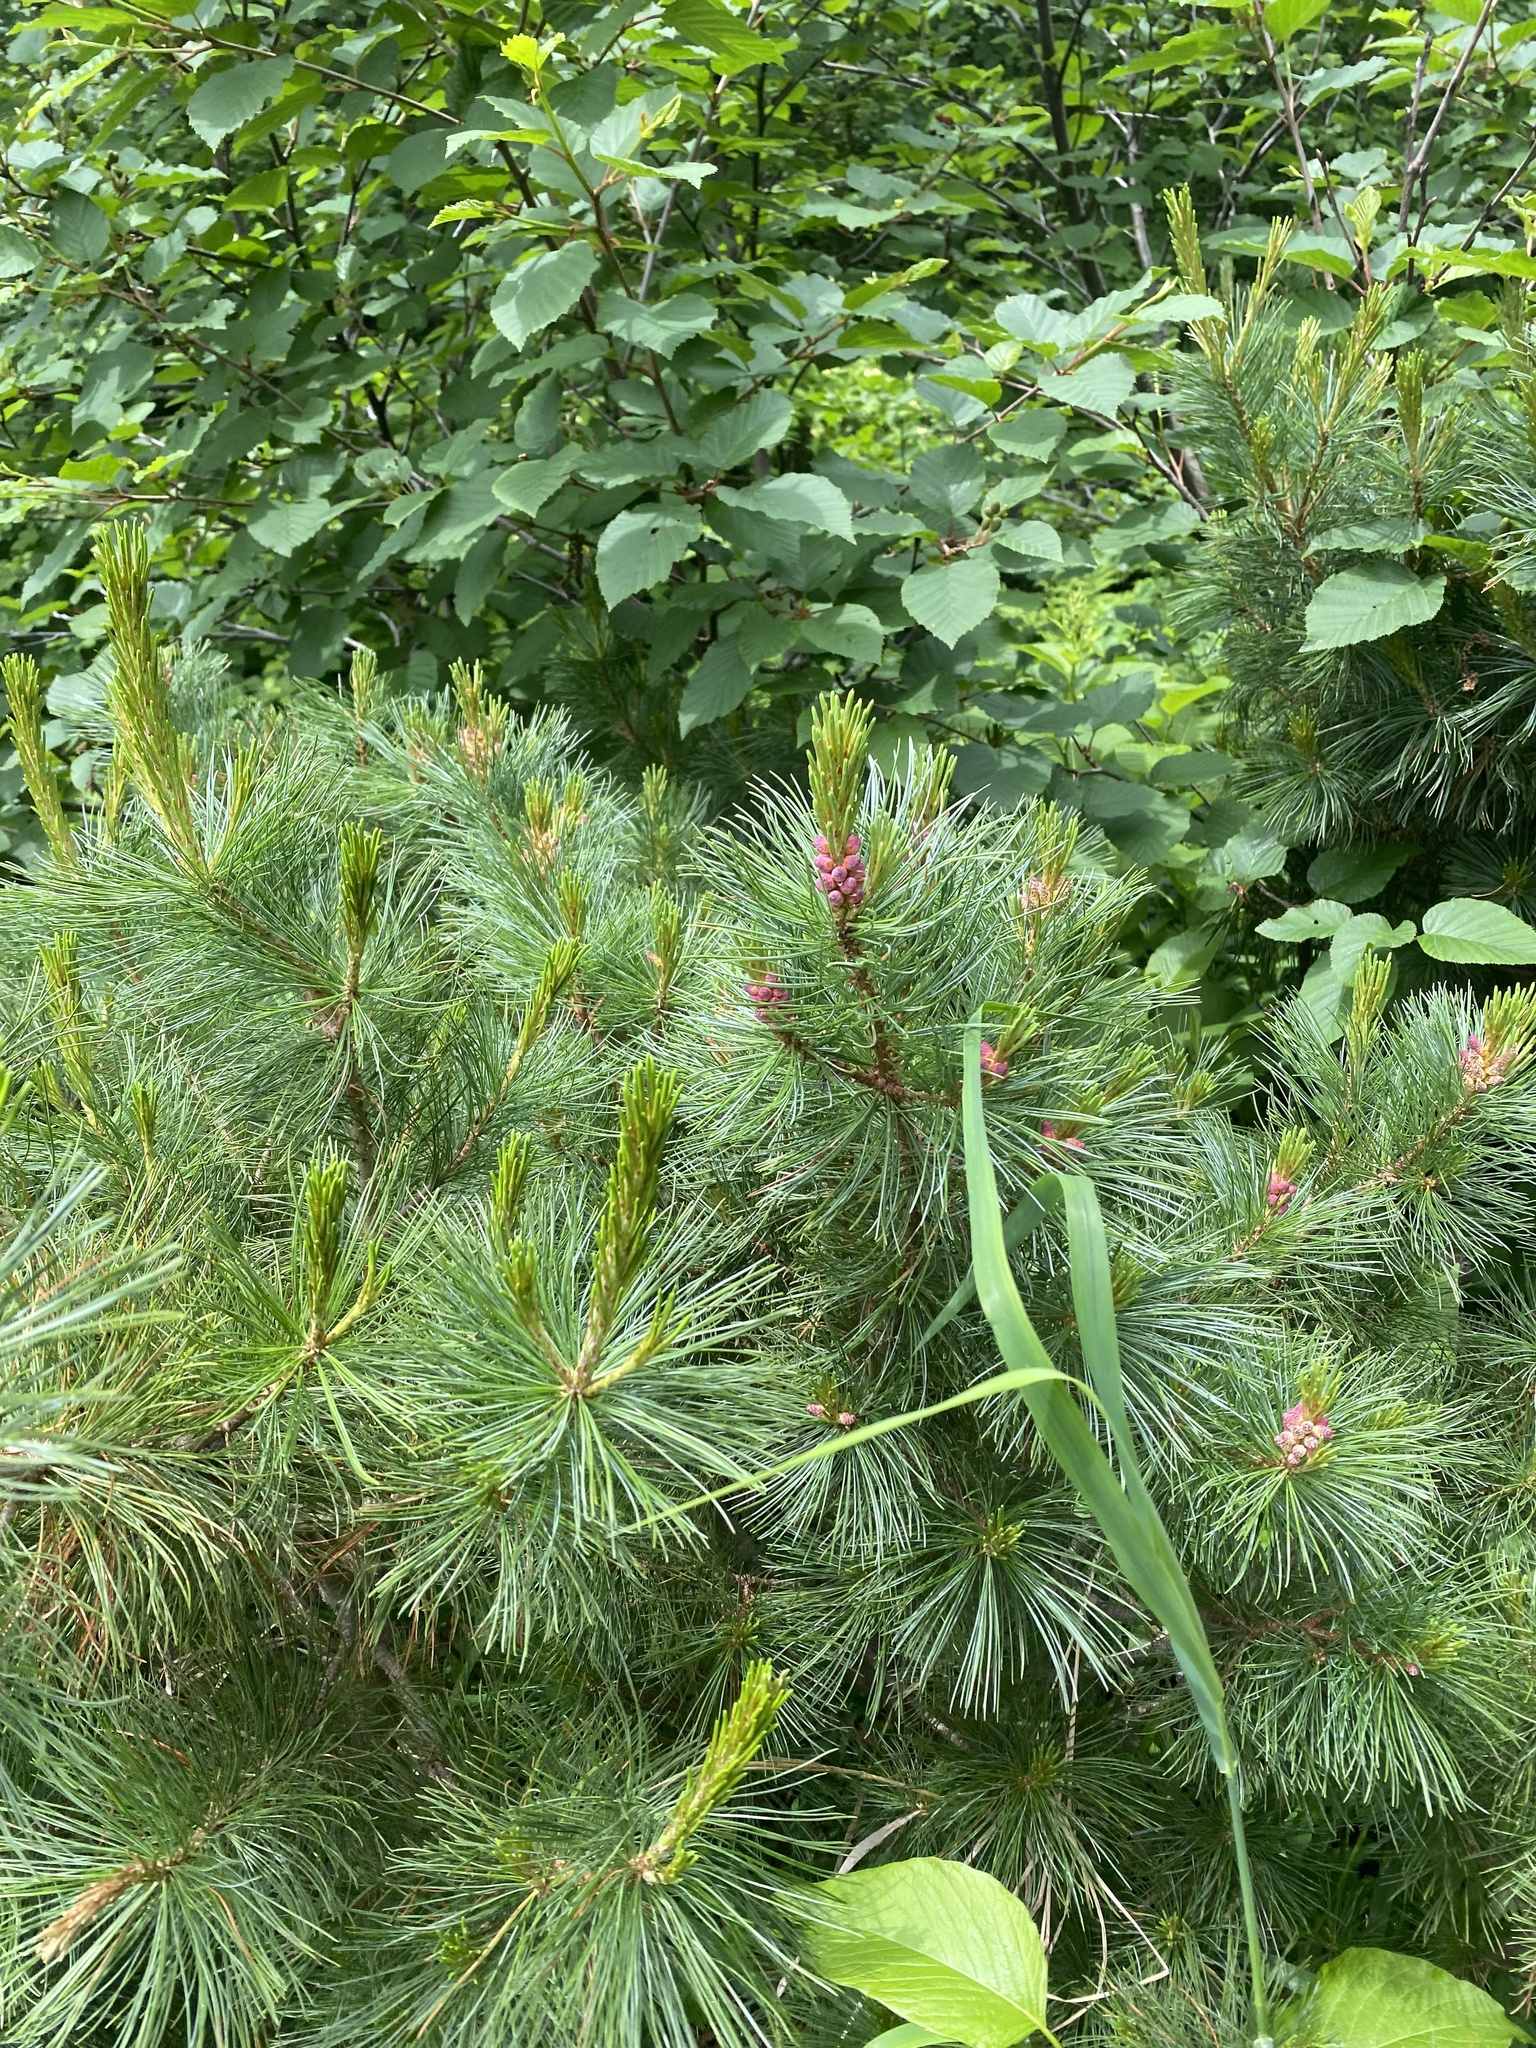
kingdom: Plantae
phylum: Tracheophyta
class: Pinopsida
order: Pinales
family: Pinaceae
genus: Pinus
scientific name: Pinus pumila
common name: Dwarf siberian pine
